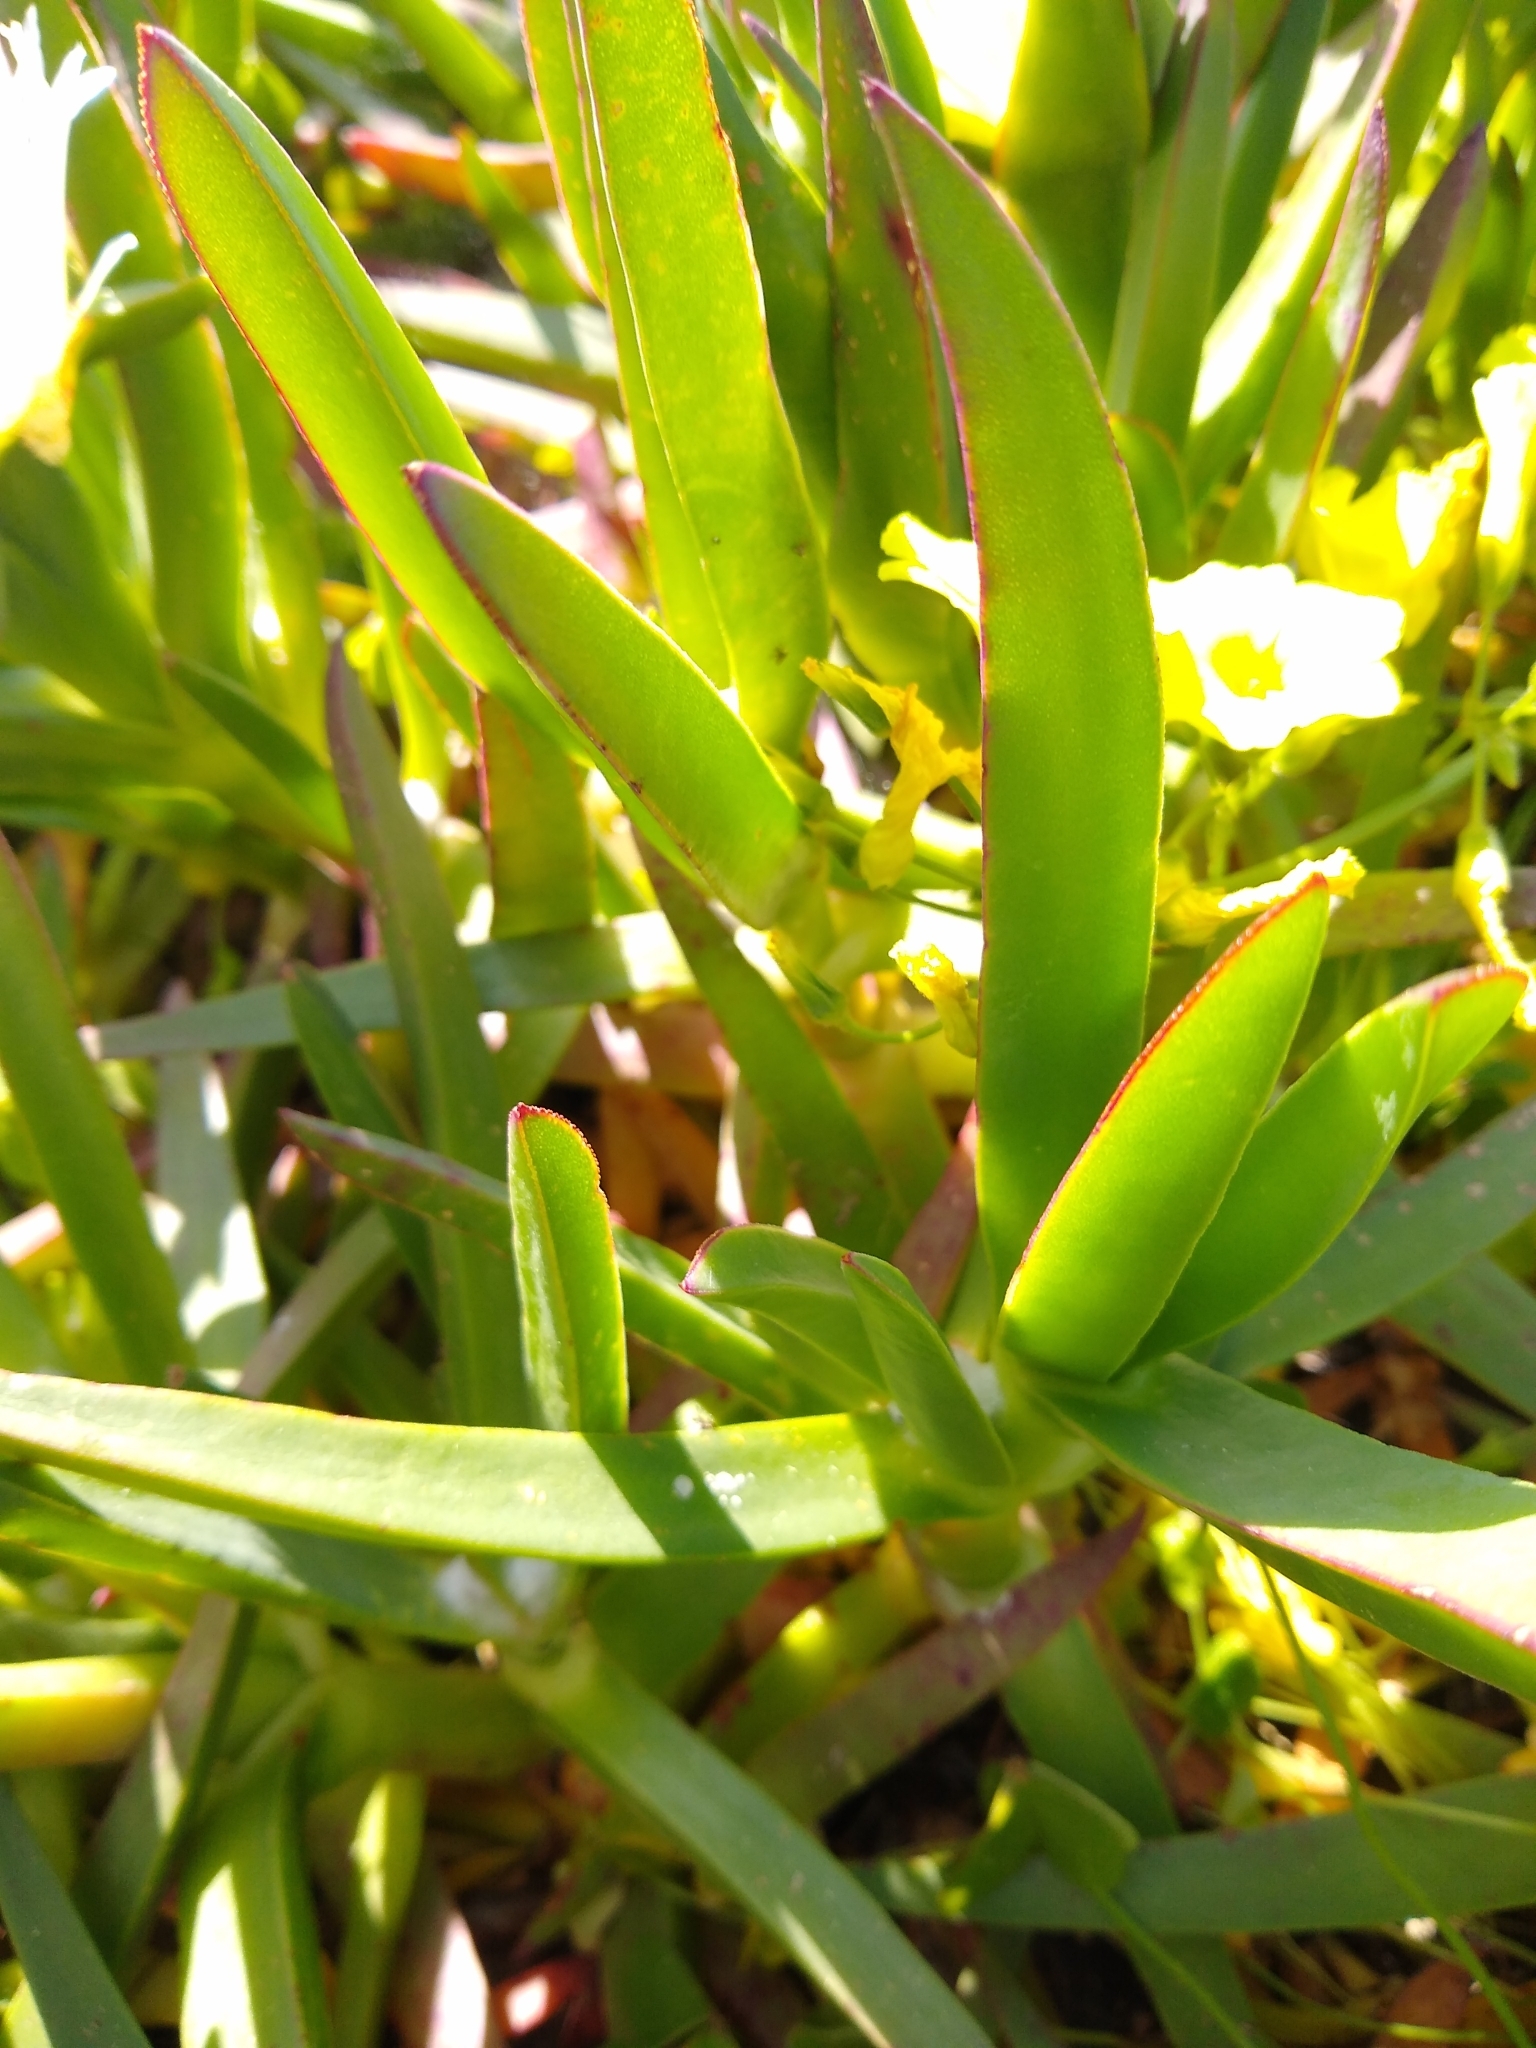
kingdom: Plantae
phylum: Tracheophyta
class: Magnoliopsida
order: Caryophyllales
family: Aizoaceae
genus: Carpobrotus
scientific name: Carpobrotus edulis
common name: Hottentot-fig
